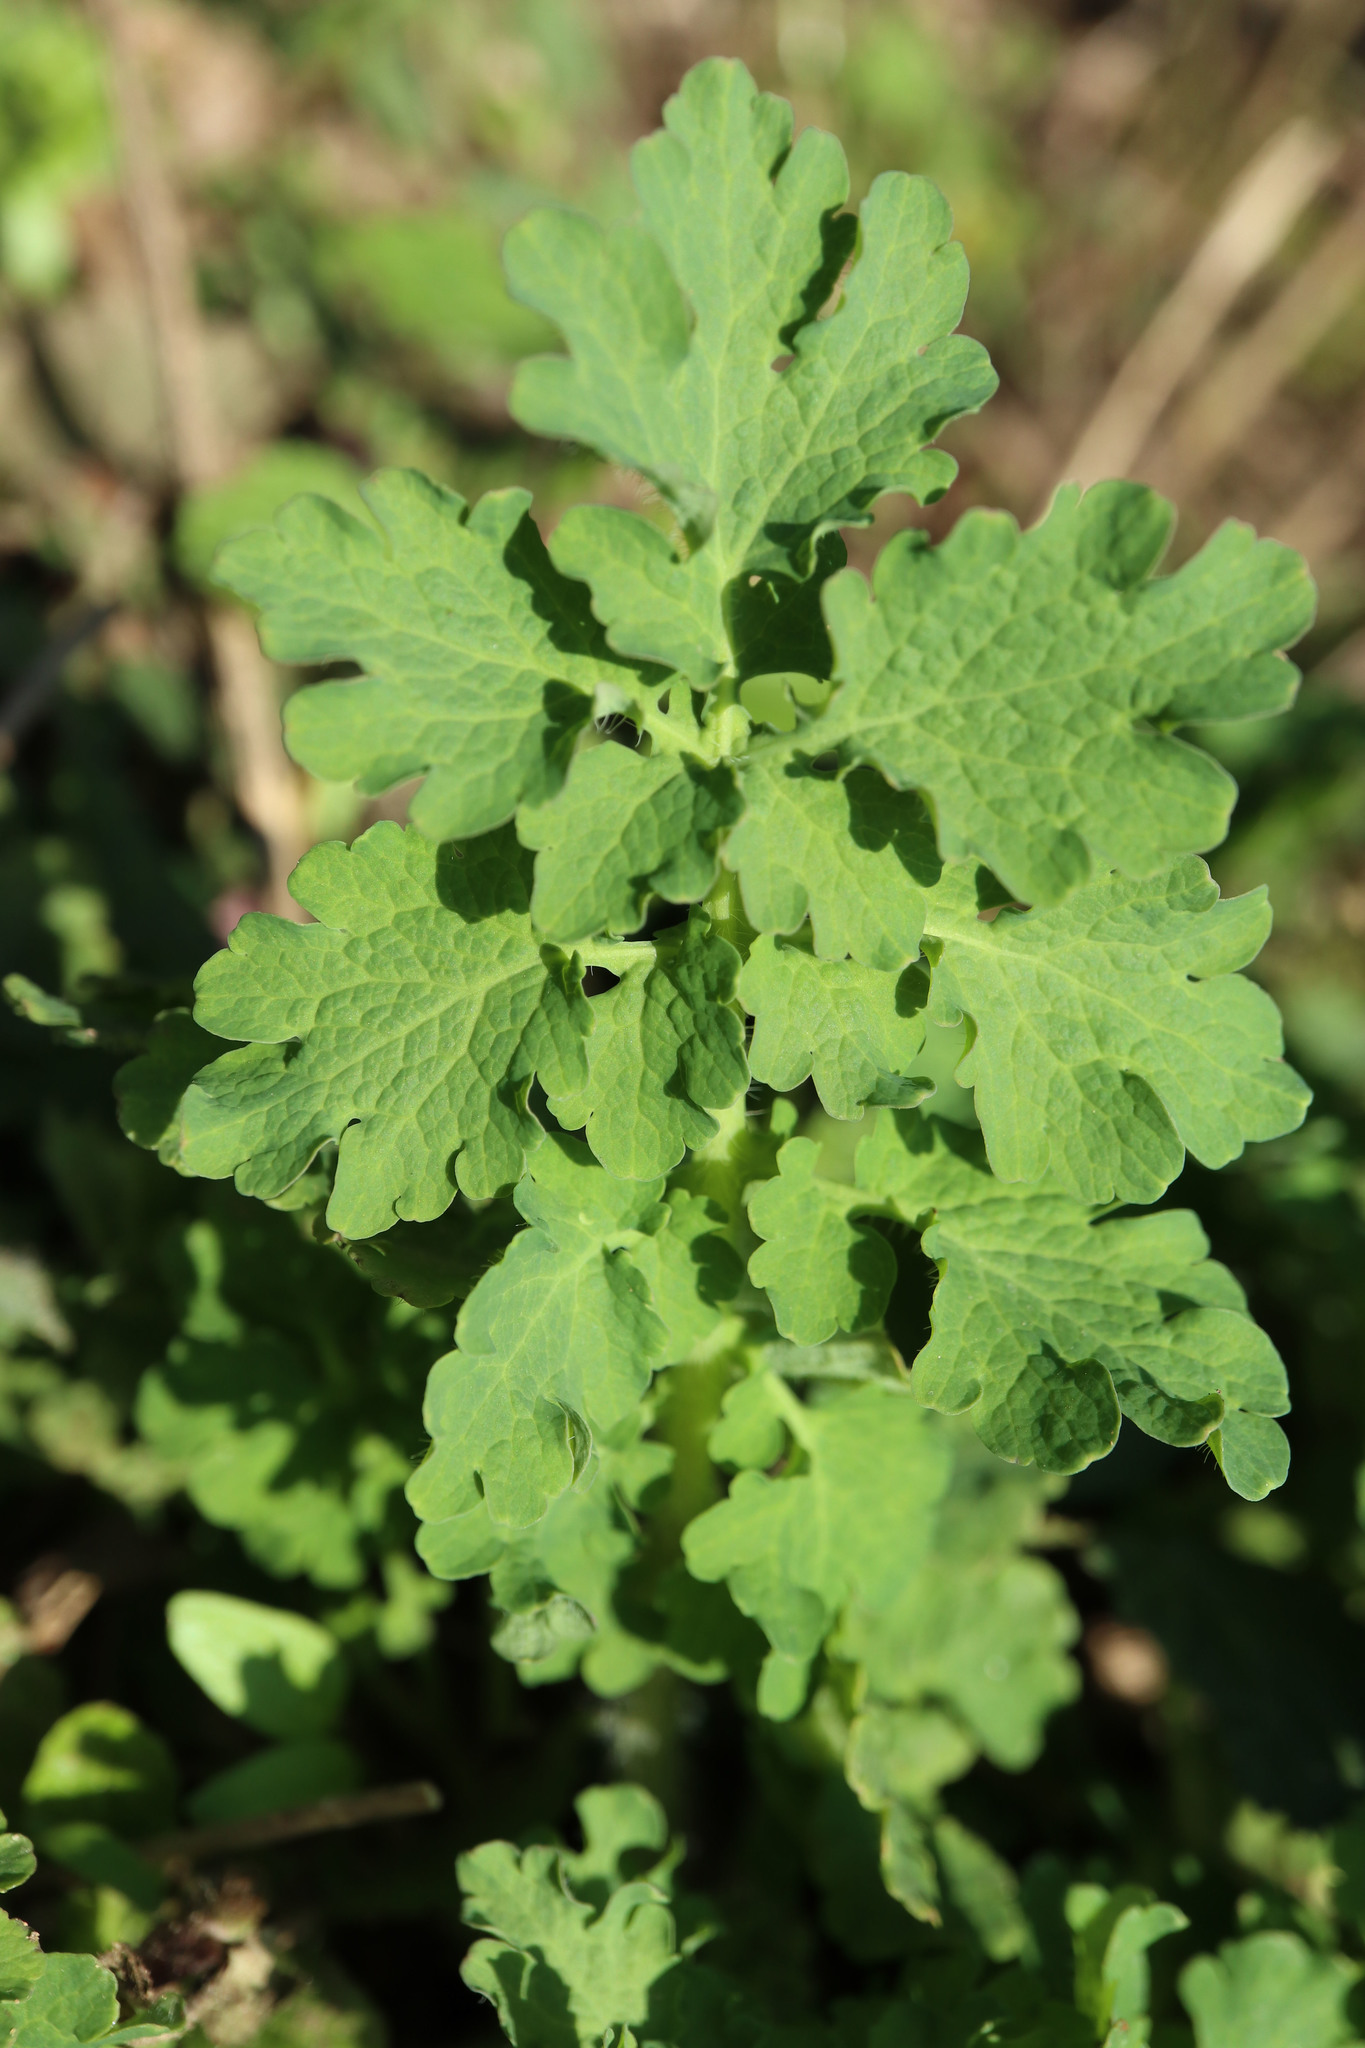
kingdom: Plantae
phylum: Tracheophyta
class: Magnoliopsida
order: Ranunculales
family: Papaveraceae
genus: Chelidonium
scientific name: Chelidonium majus
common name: Greater celandine
